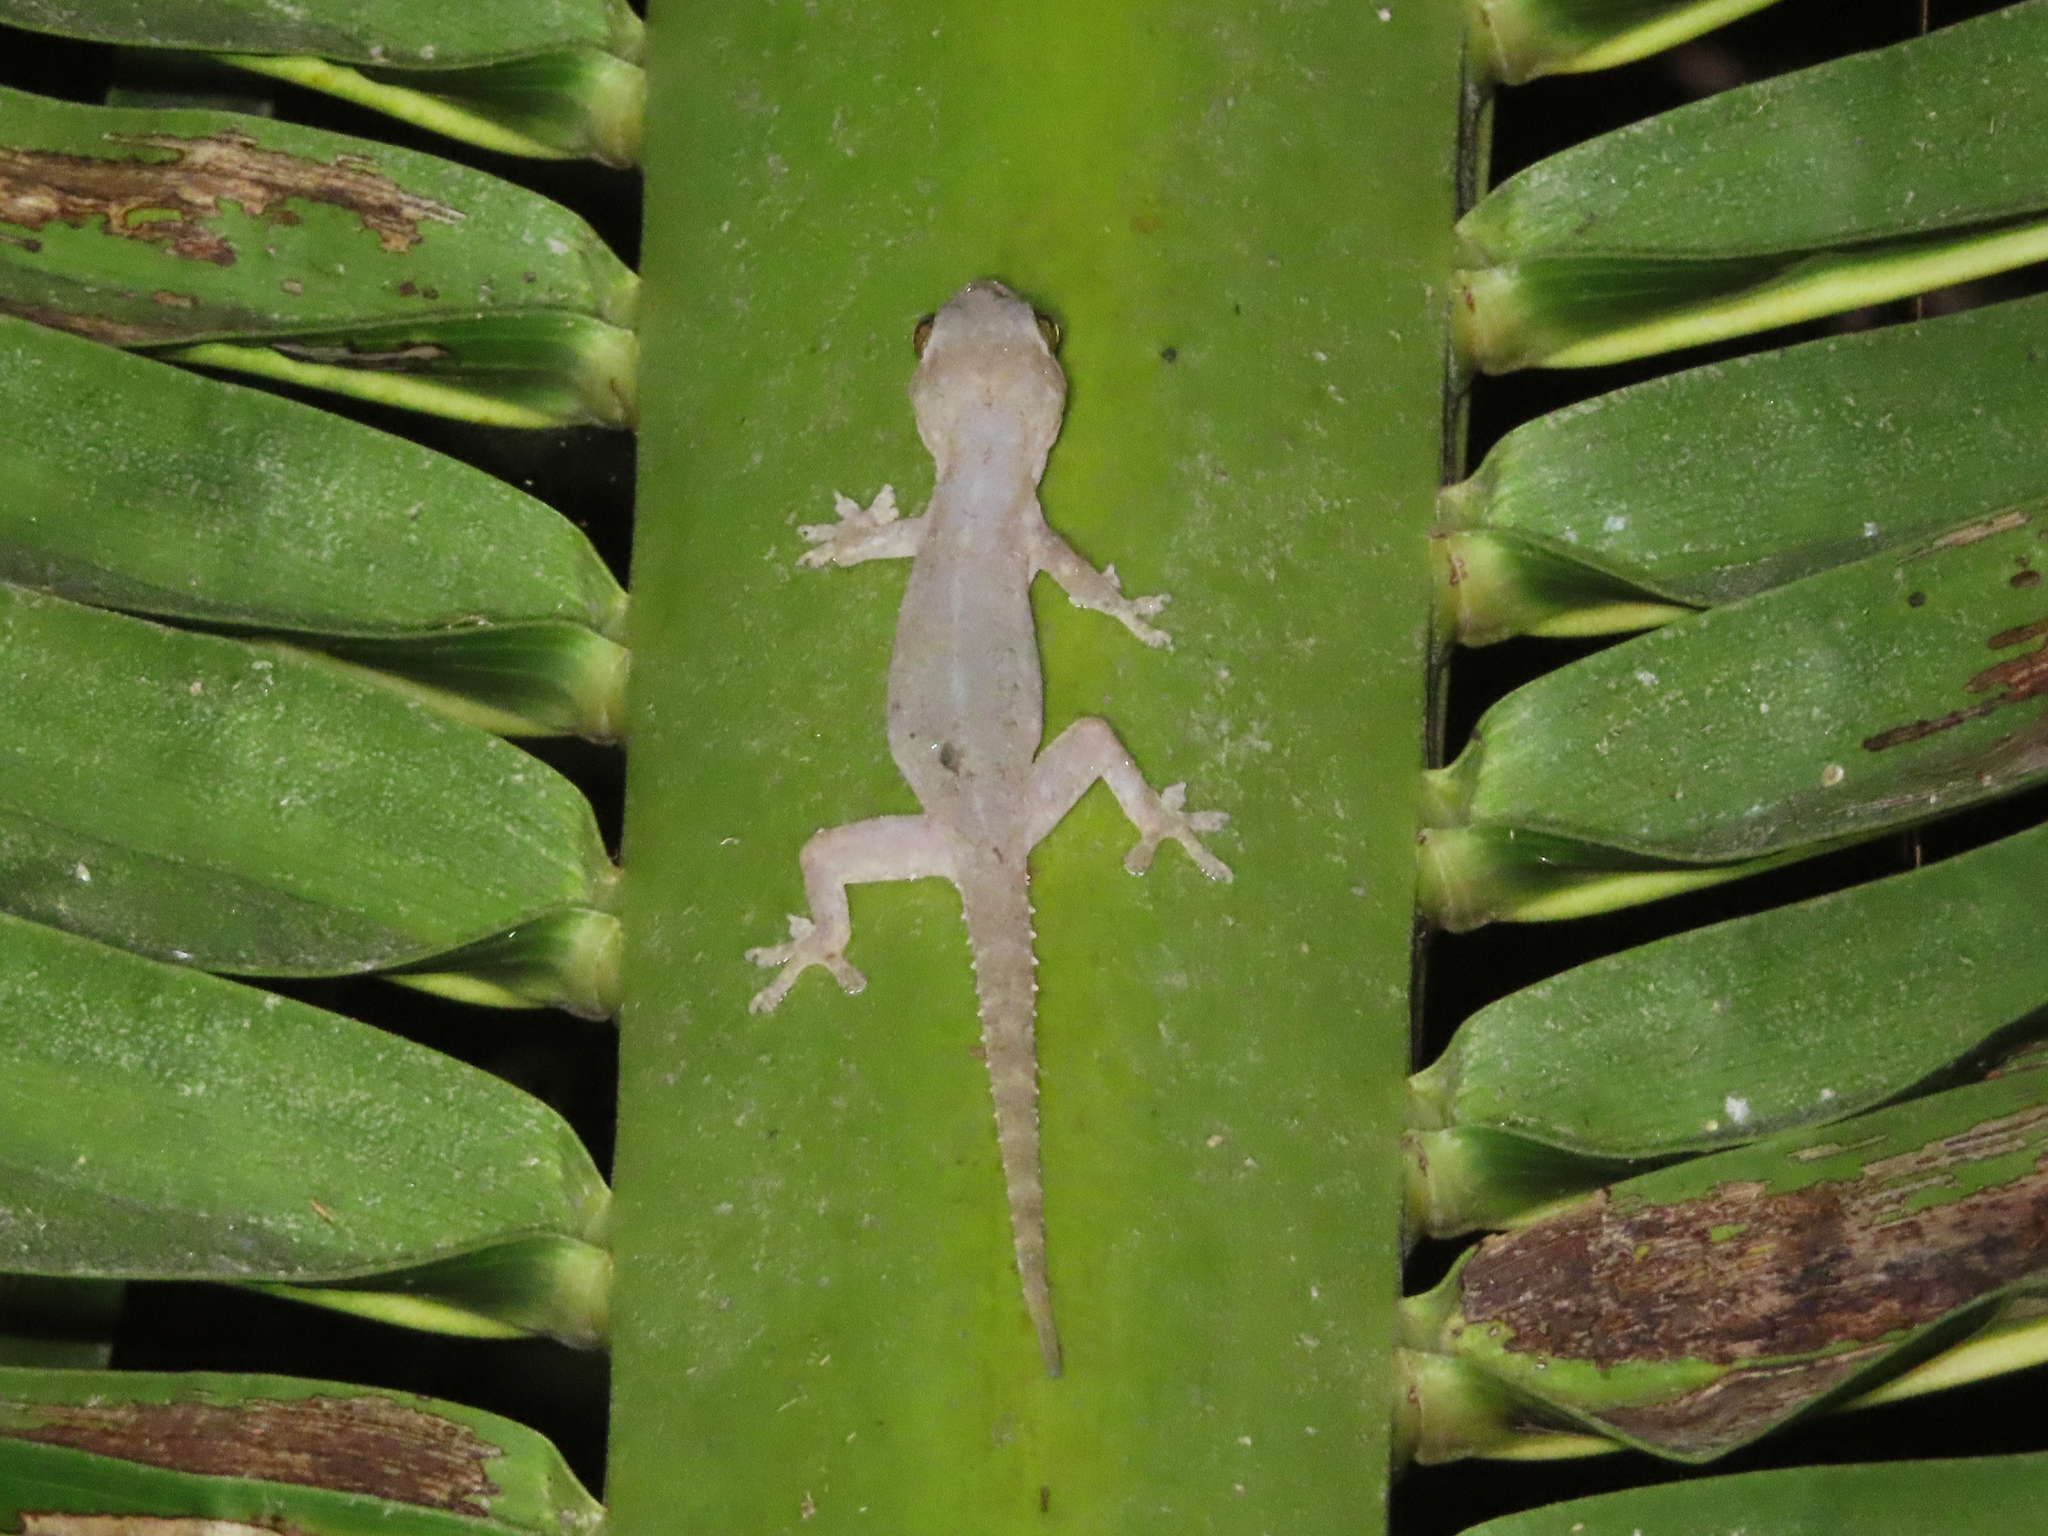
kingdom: Animalia
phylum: Chordata
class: Squamata
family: Gekkonidae
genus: Hemidactylus
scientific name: Hemidactylus frenatus
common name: Common house gecko
